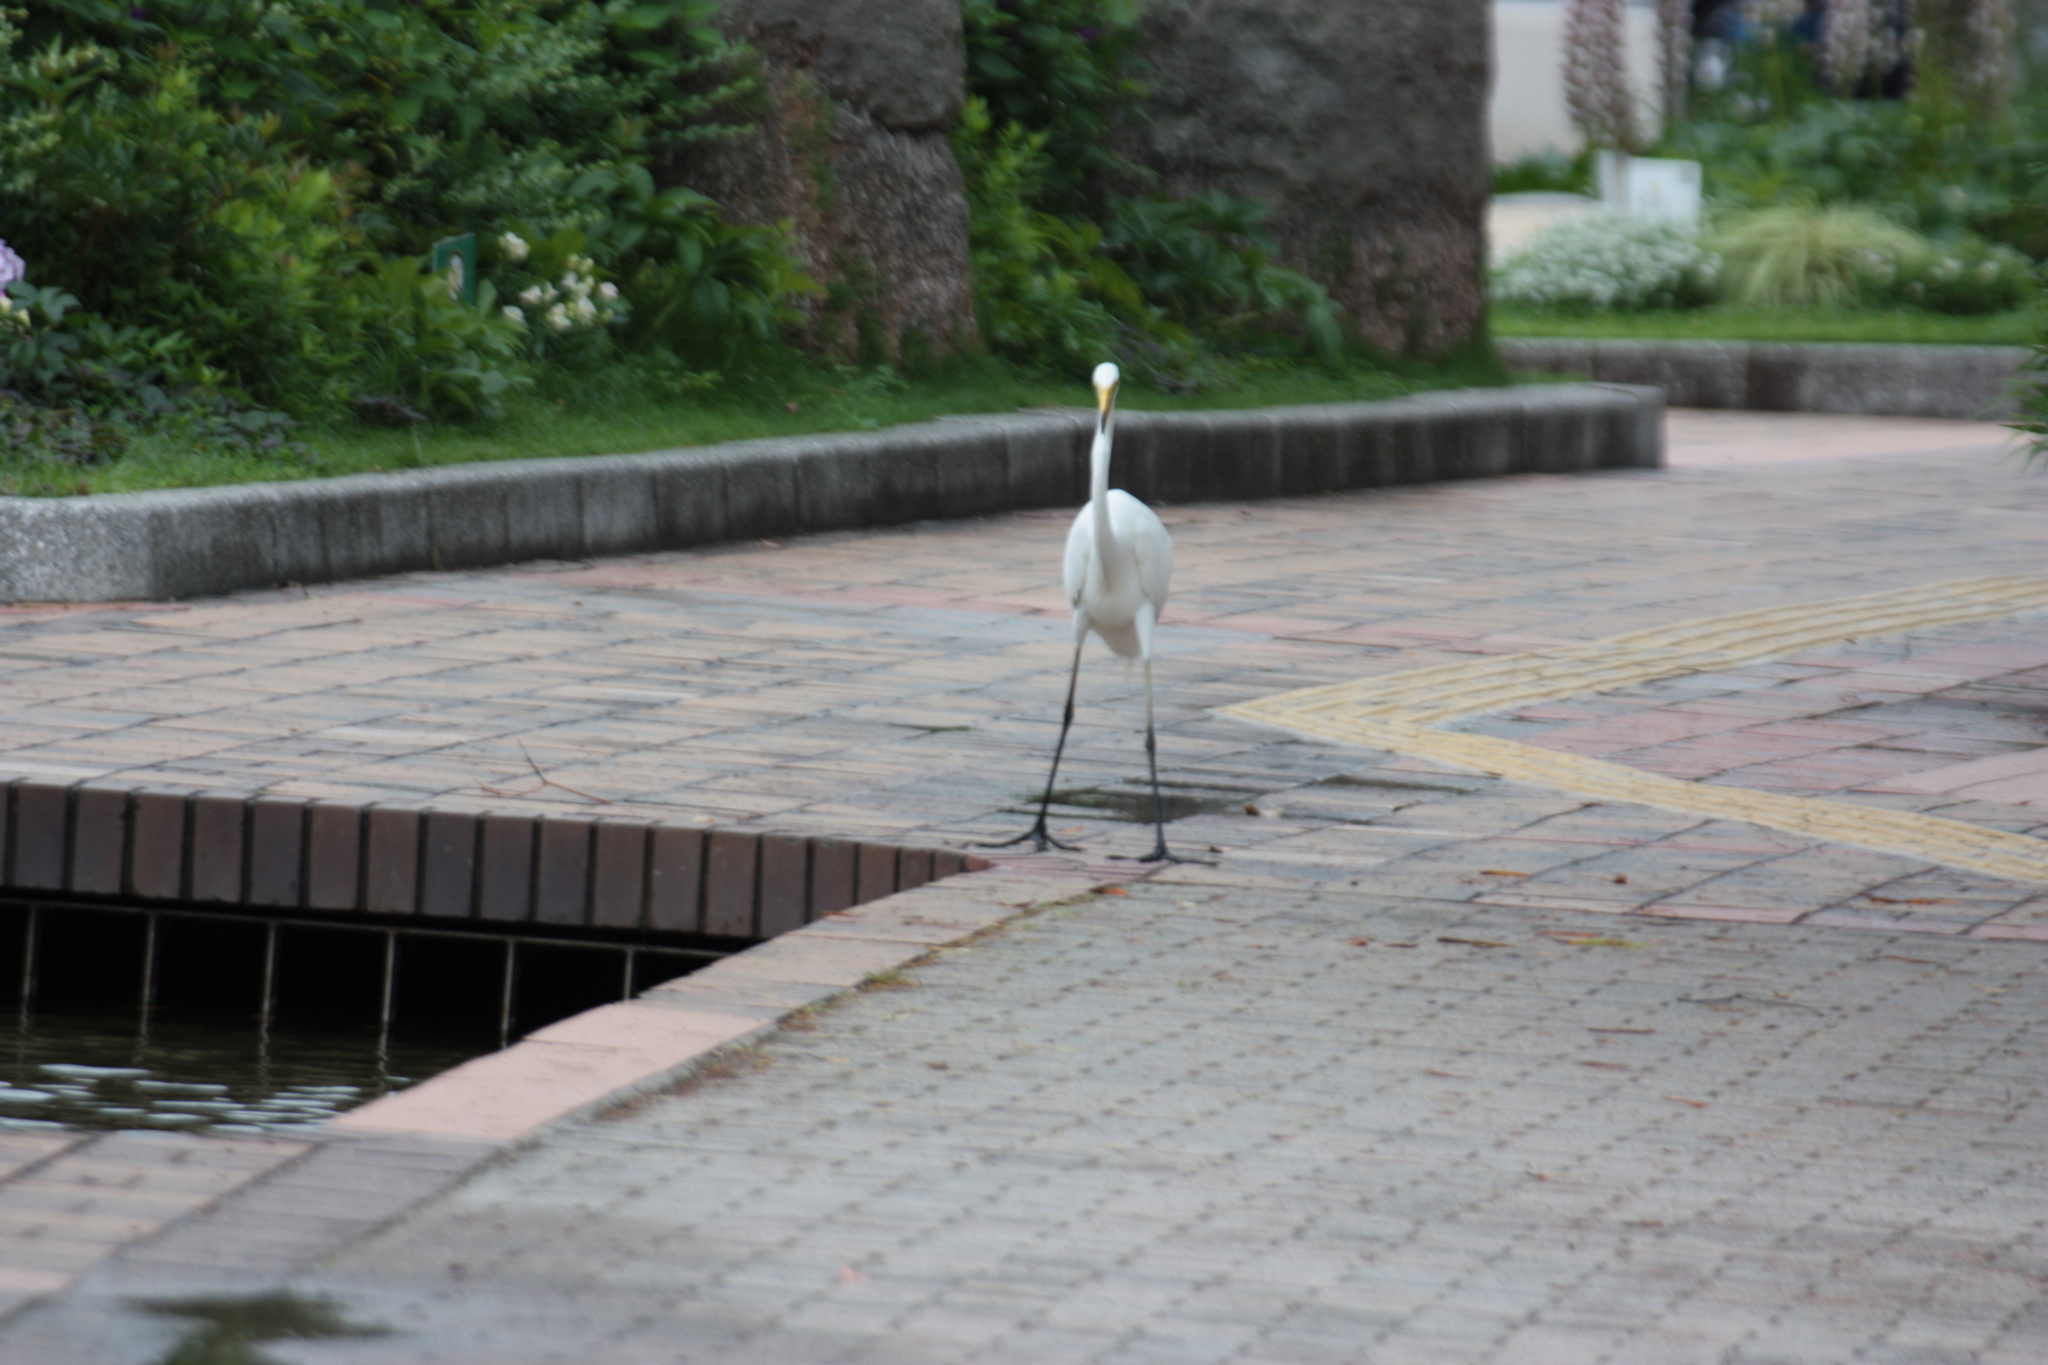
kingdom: Animalia
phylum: Chordata
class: Aves
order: Pelecaniformes
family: Ardeidae
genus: Ardea
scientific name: Ardea alba
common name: Great egret
